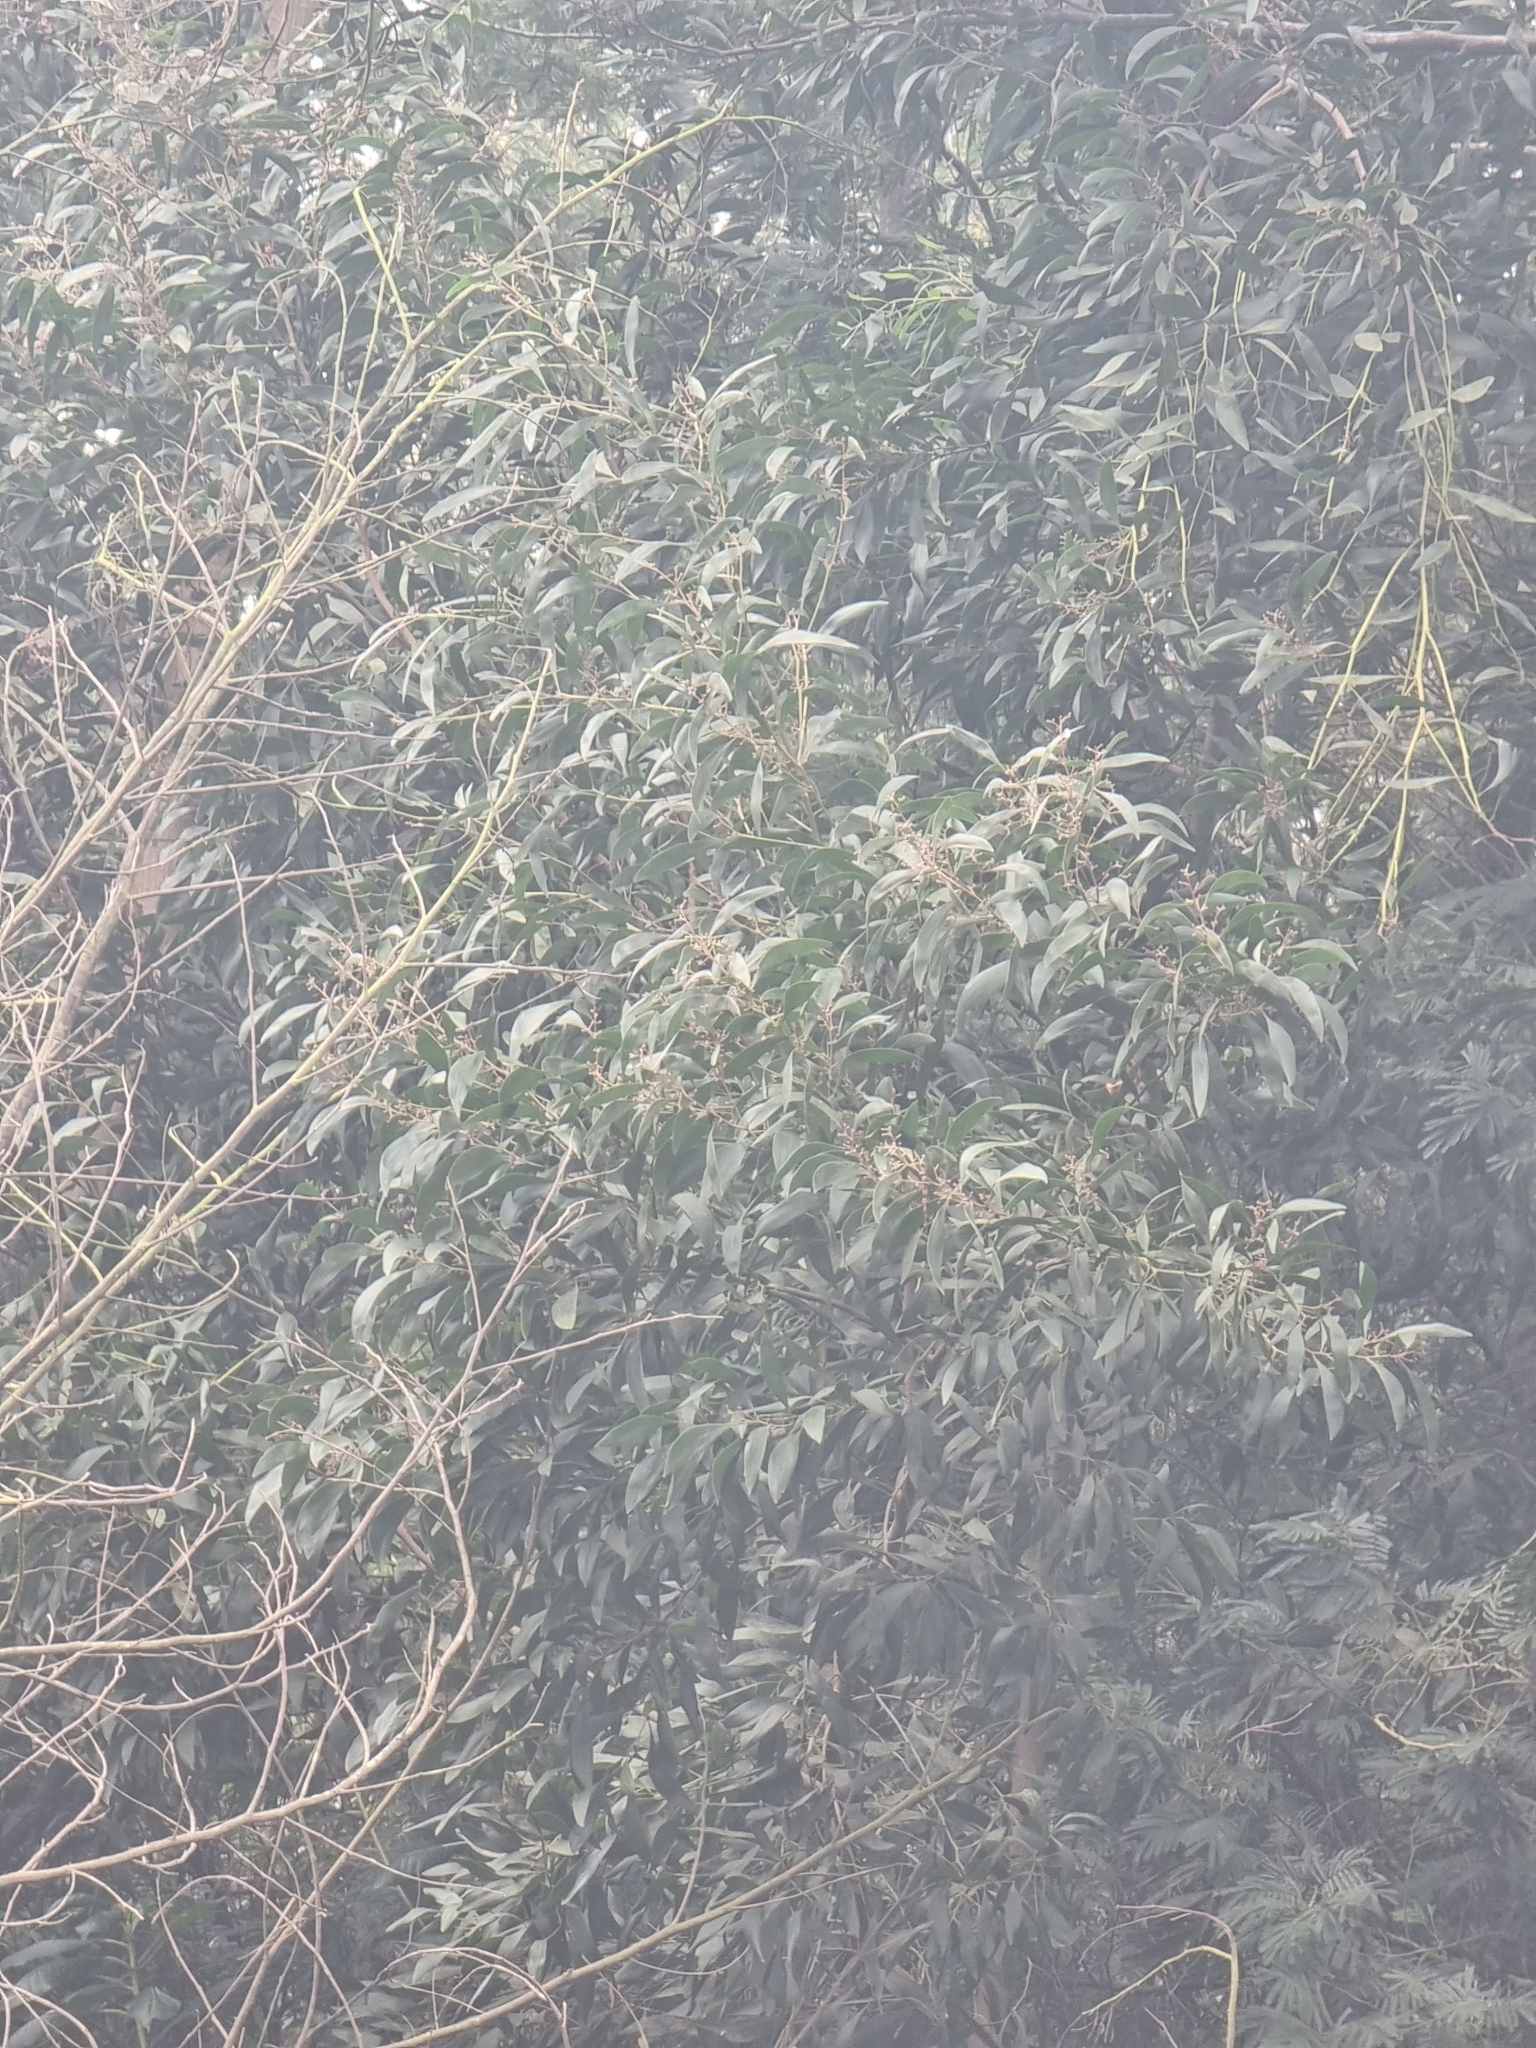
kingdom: Plantae
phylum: Tracheophyta
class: Magnoliopsida
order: Fabales
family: Fabaceae
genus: Acacia
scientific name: Acacia melanoxylon
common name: Blackwood
